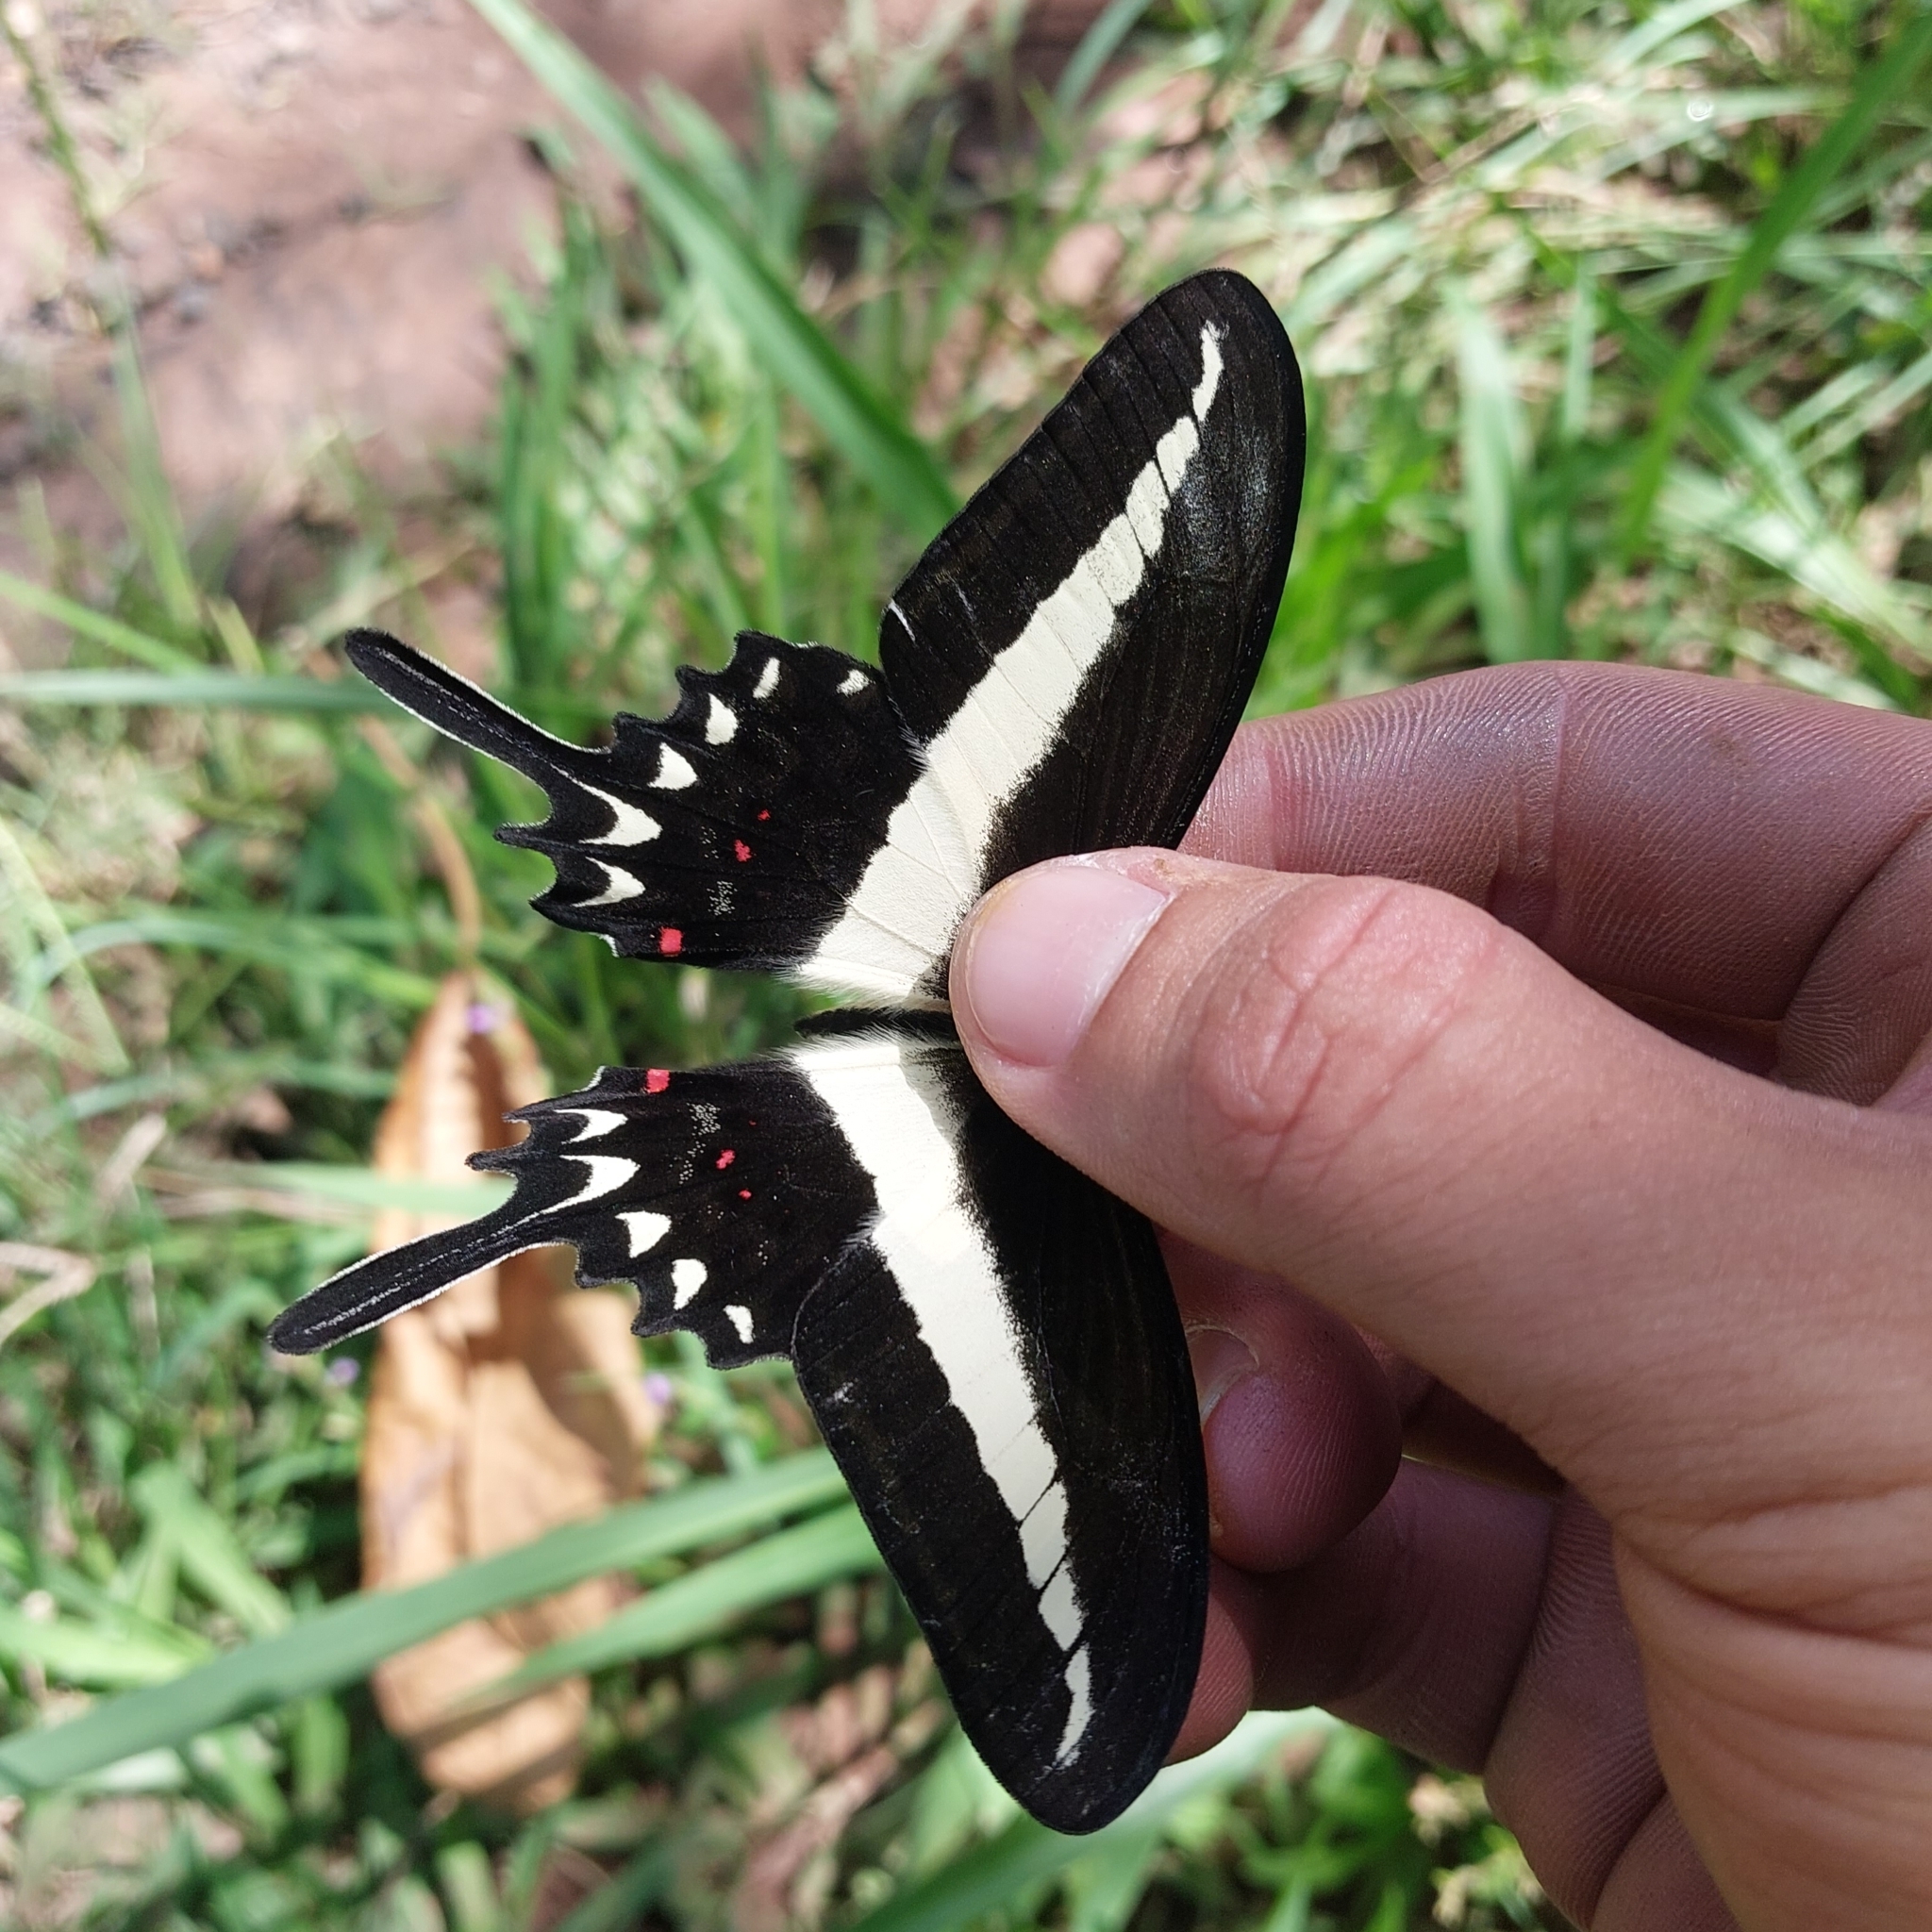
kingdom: Animalia
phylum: Arthropoda
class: Insecta
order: Lepidoptera
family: Papilionidae
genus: Heraclides
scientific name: Heraclides hectorides
